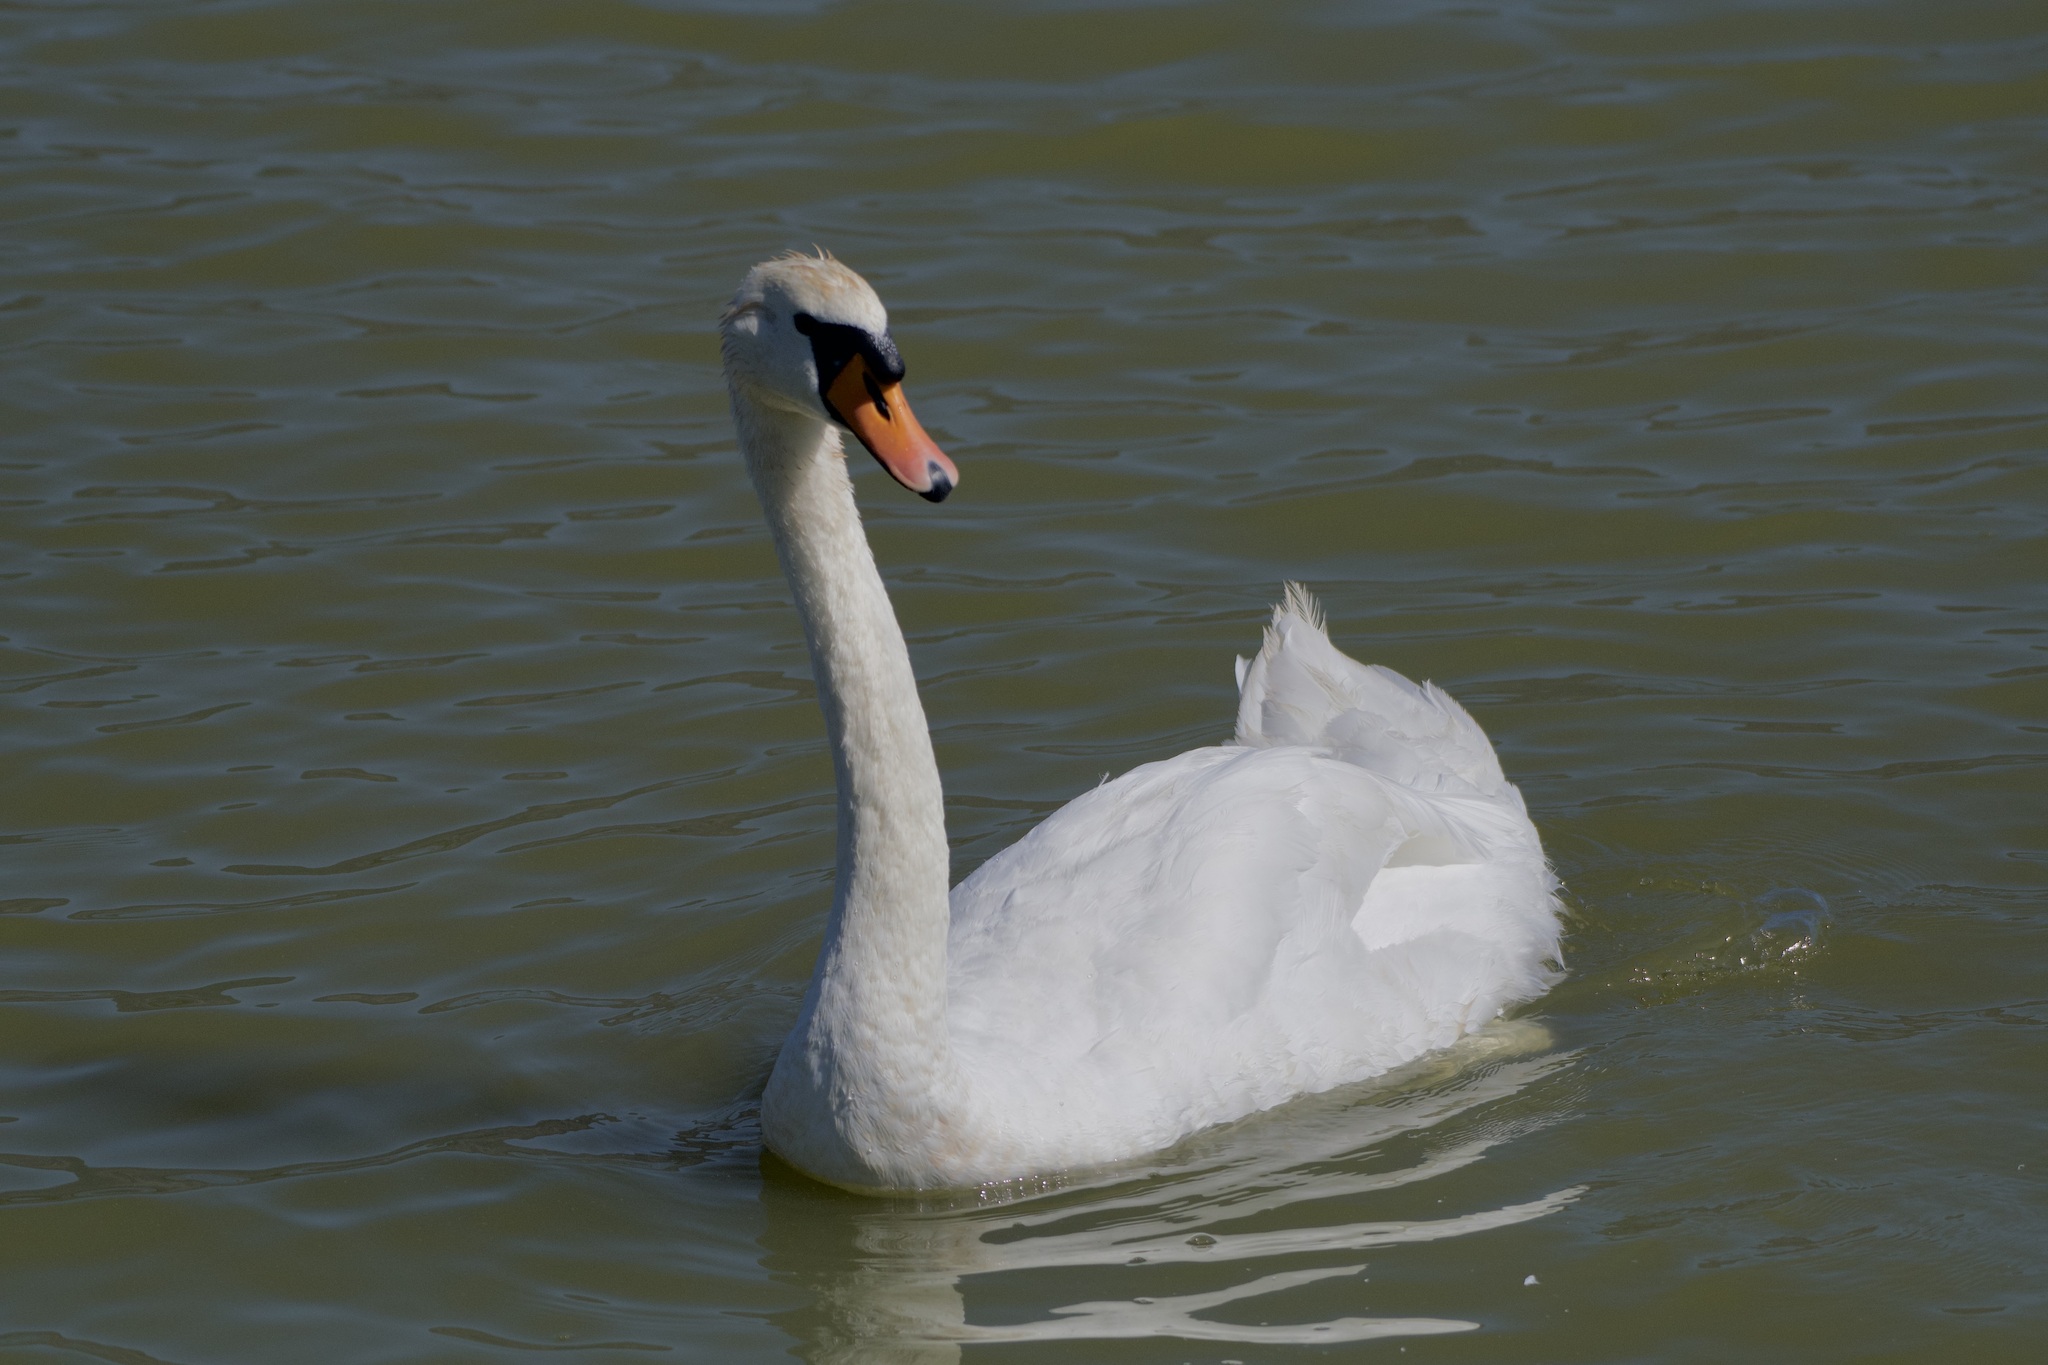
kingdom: Animalia
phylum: Chordata
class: Aves
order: Anseriformes
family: Anatidae
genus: Cygnus
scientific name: Cygnus olor
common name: Mute swan
